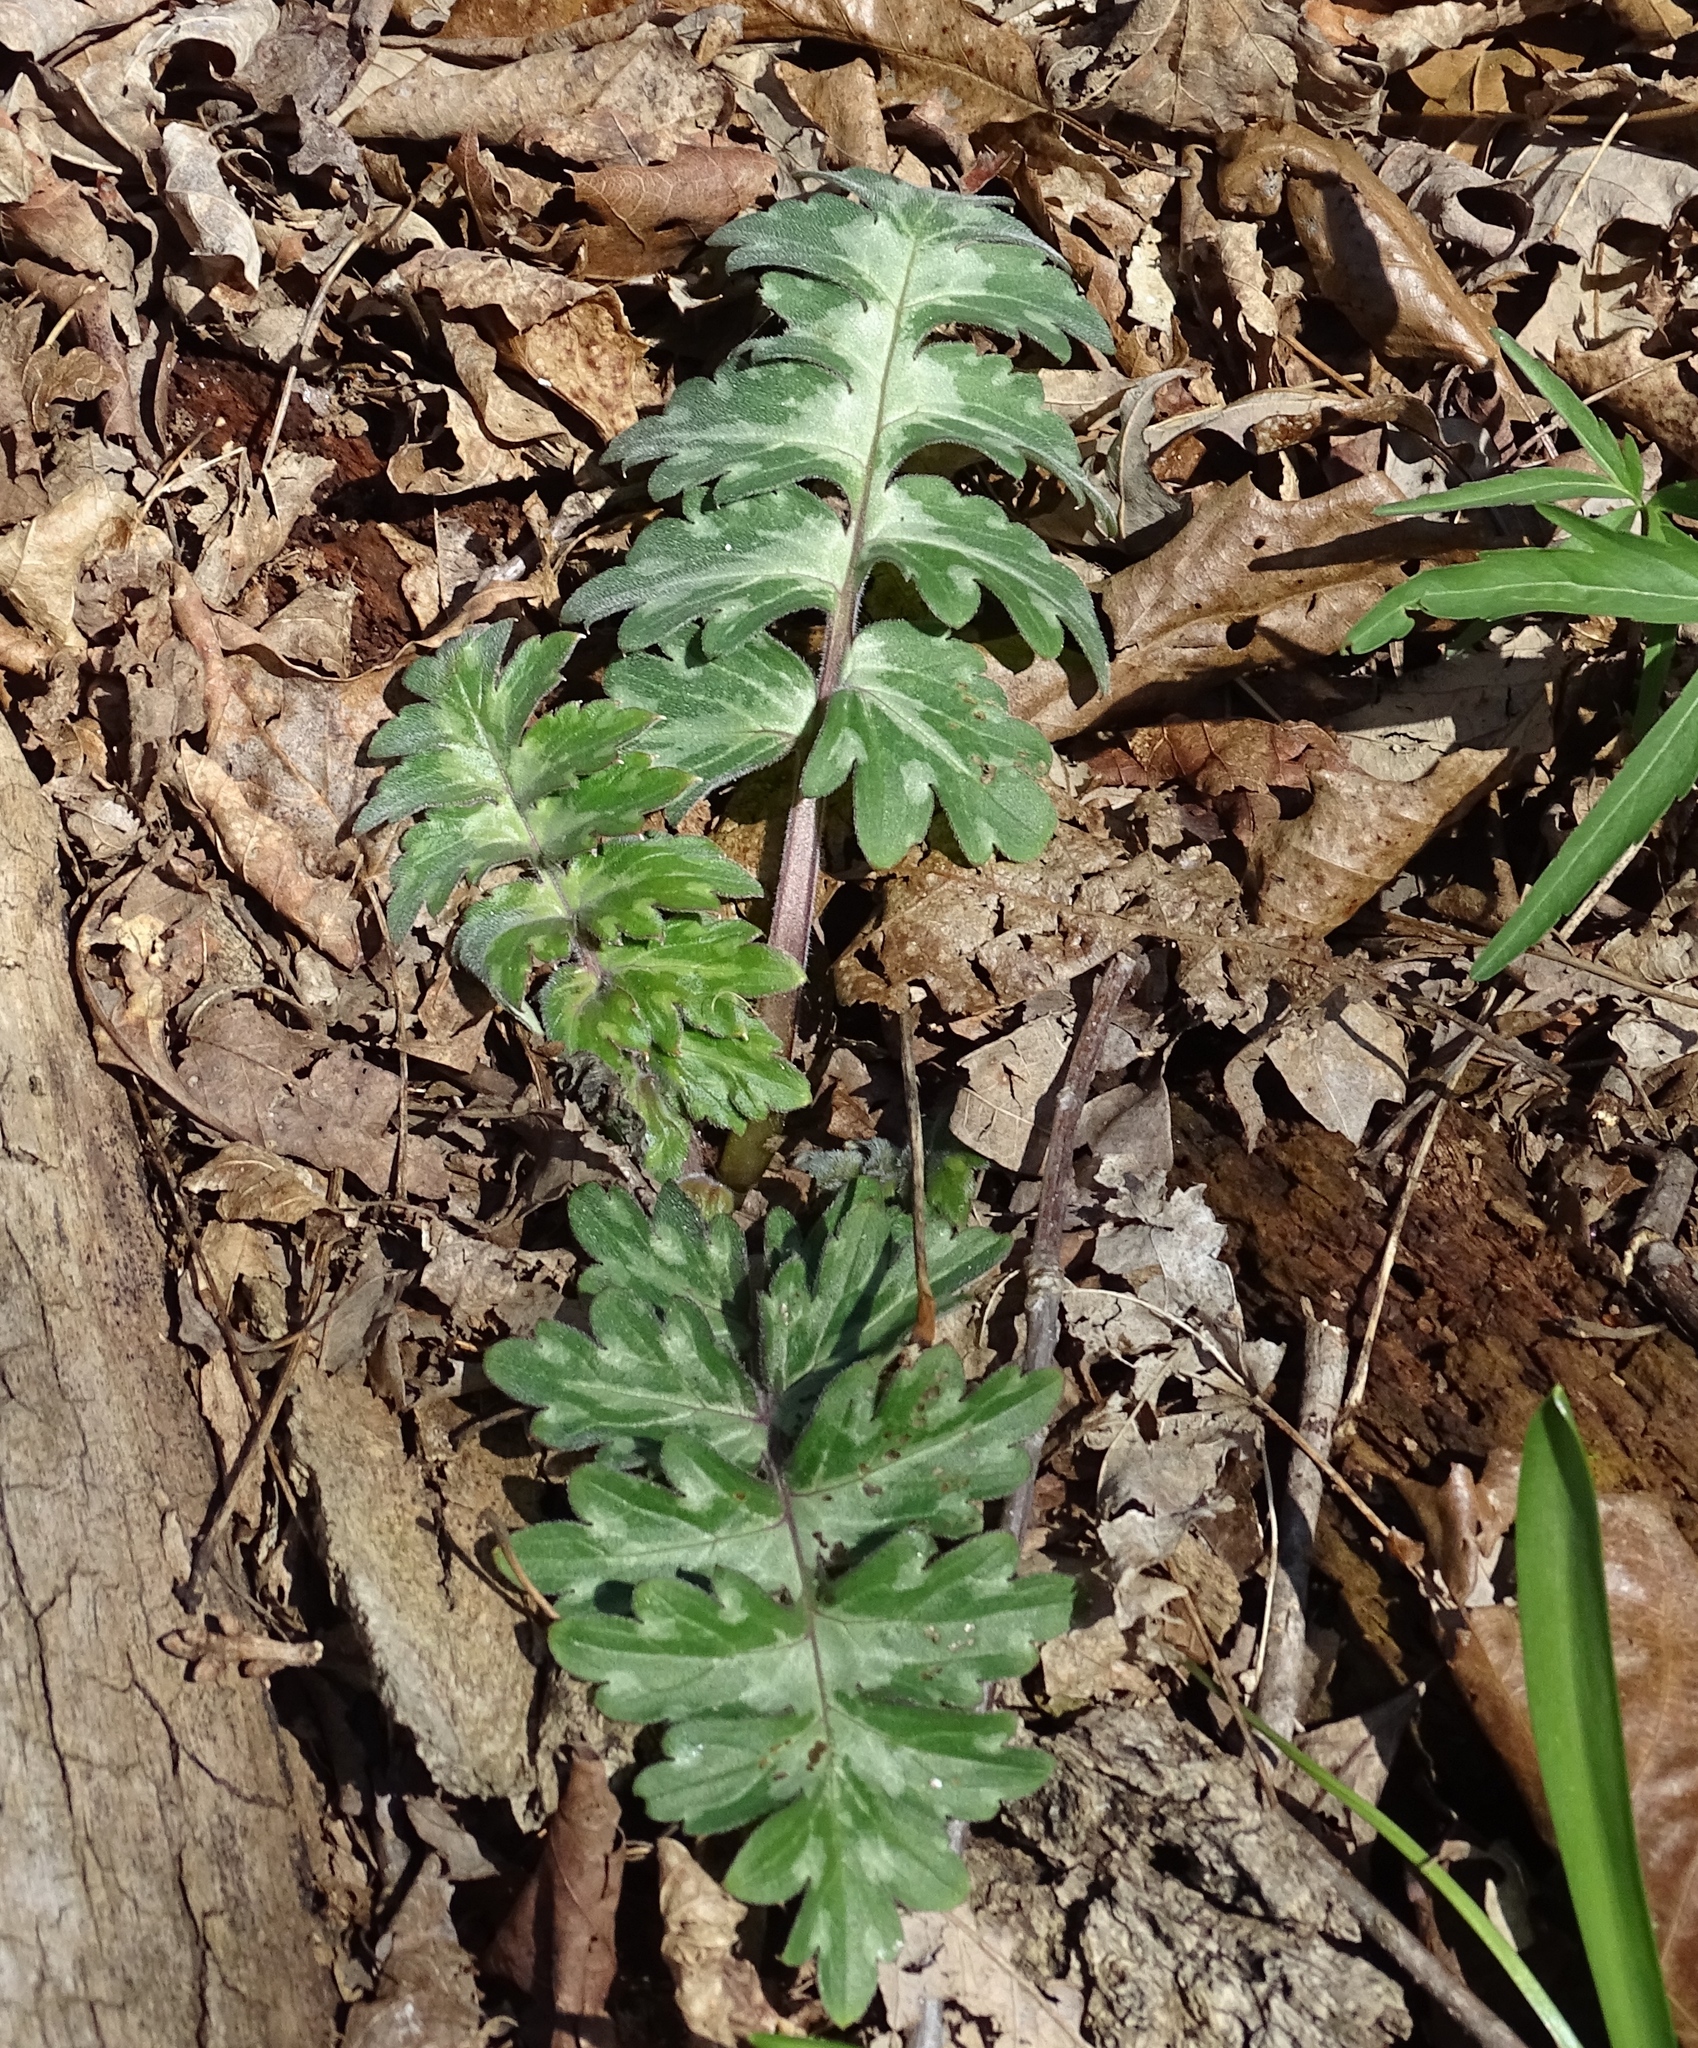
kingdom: Plantae
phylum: Tracheophyta
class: Magnoliopsida
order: Boraginales
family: Hydrophyllaceae
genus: Hydrophyllum
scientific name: Hydrophyllum macrophyllum
